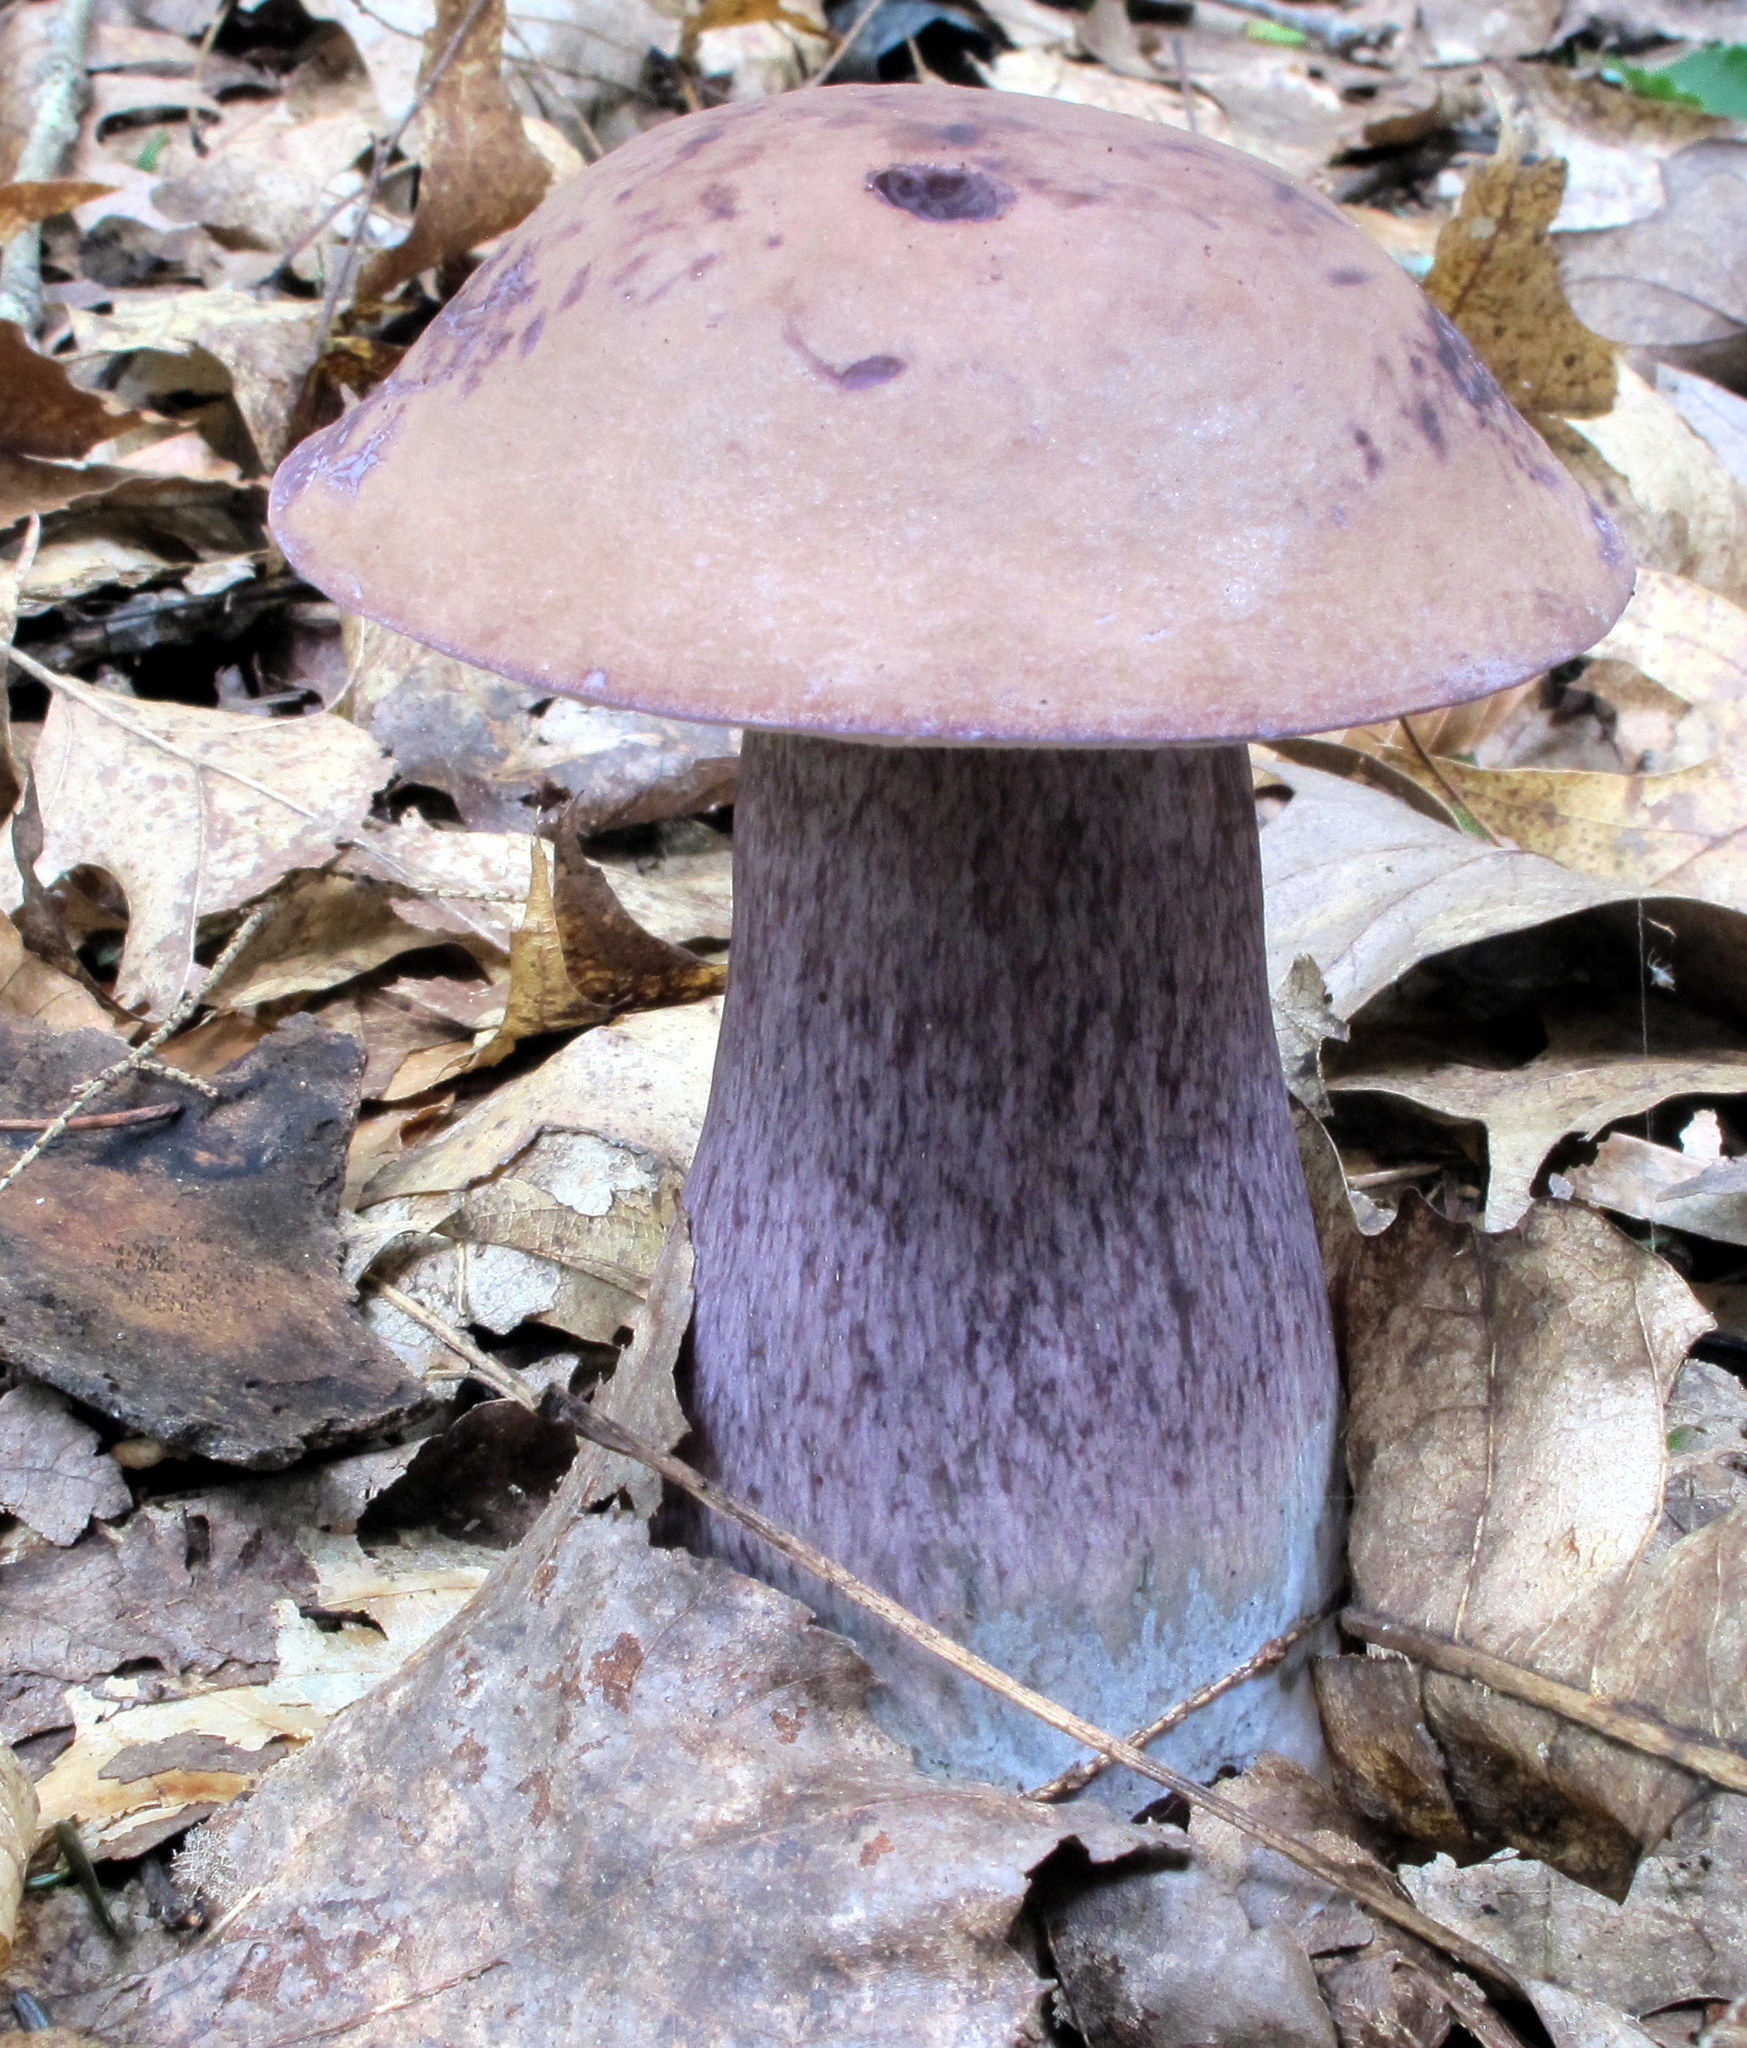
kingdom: Fungi
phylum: Basidiomycota
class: Agaricomycetes
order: Boletales
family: Boletaceae
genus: Tylopilus
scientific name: Tylopilus plumbeoviolaceus
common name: Violet gray bolete
